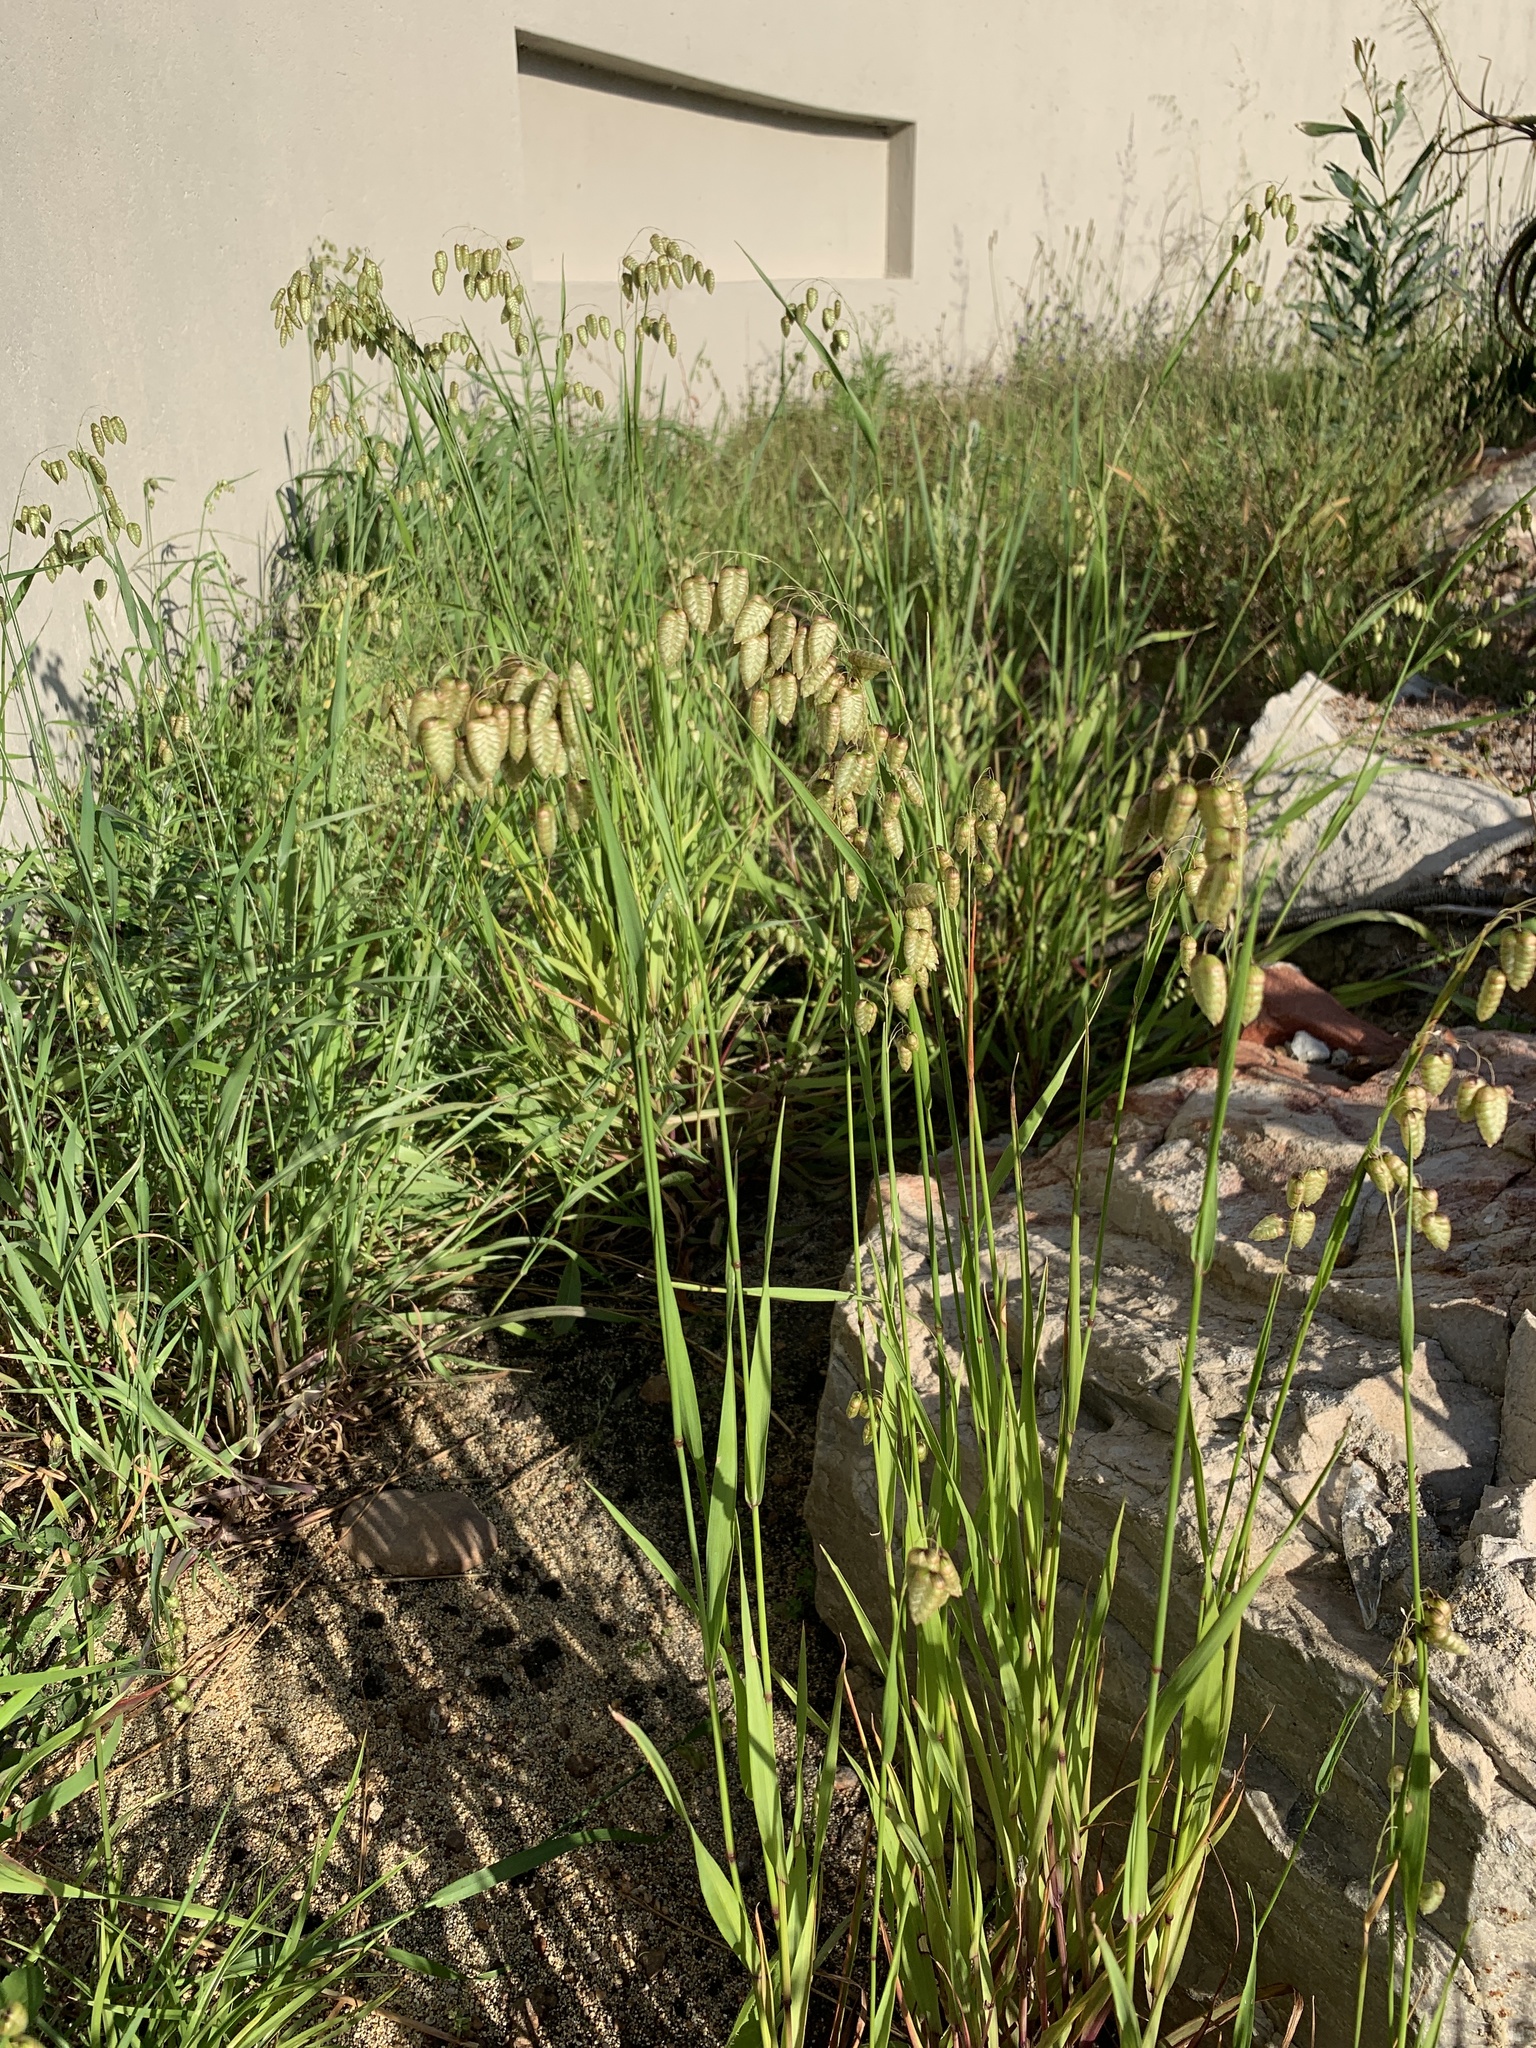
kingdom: Plantae
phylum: Tracheophyta
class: Liliopsida
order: Poales
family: Poaceae
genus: Briza
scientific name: Briza maxima
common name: Big quakinggrass
